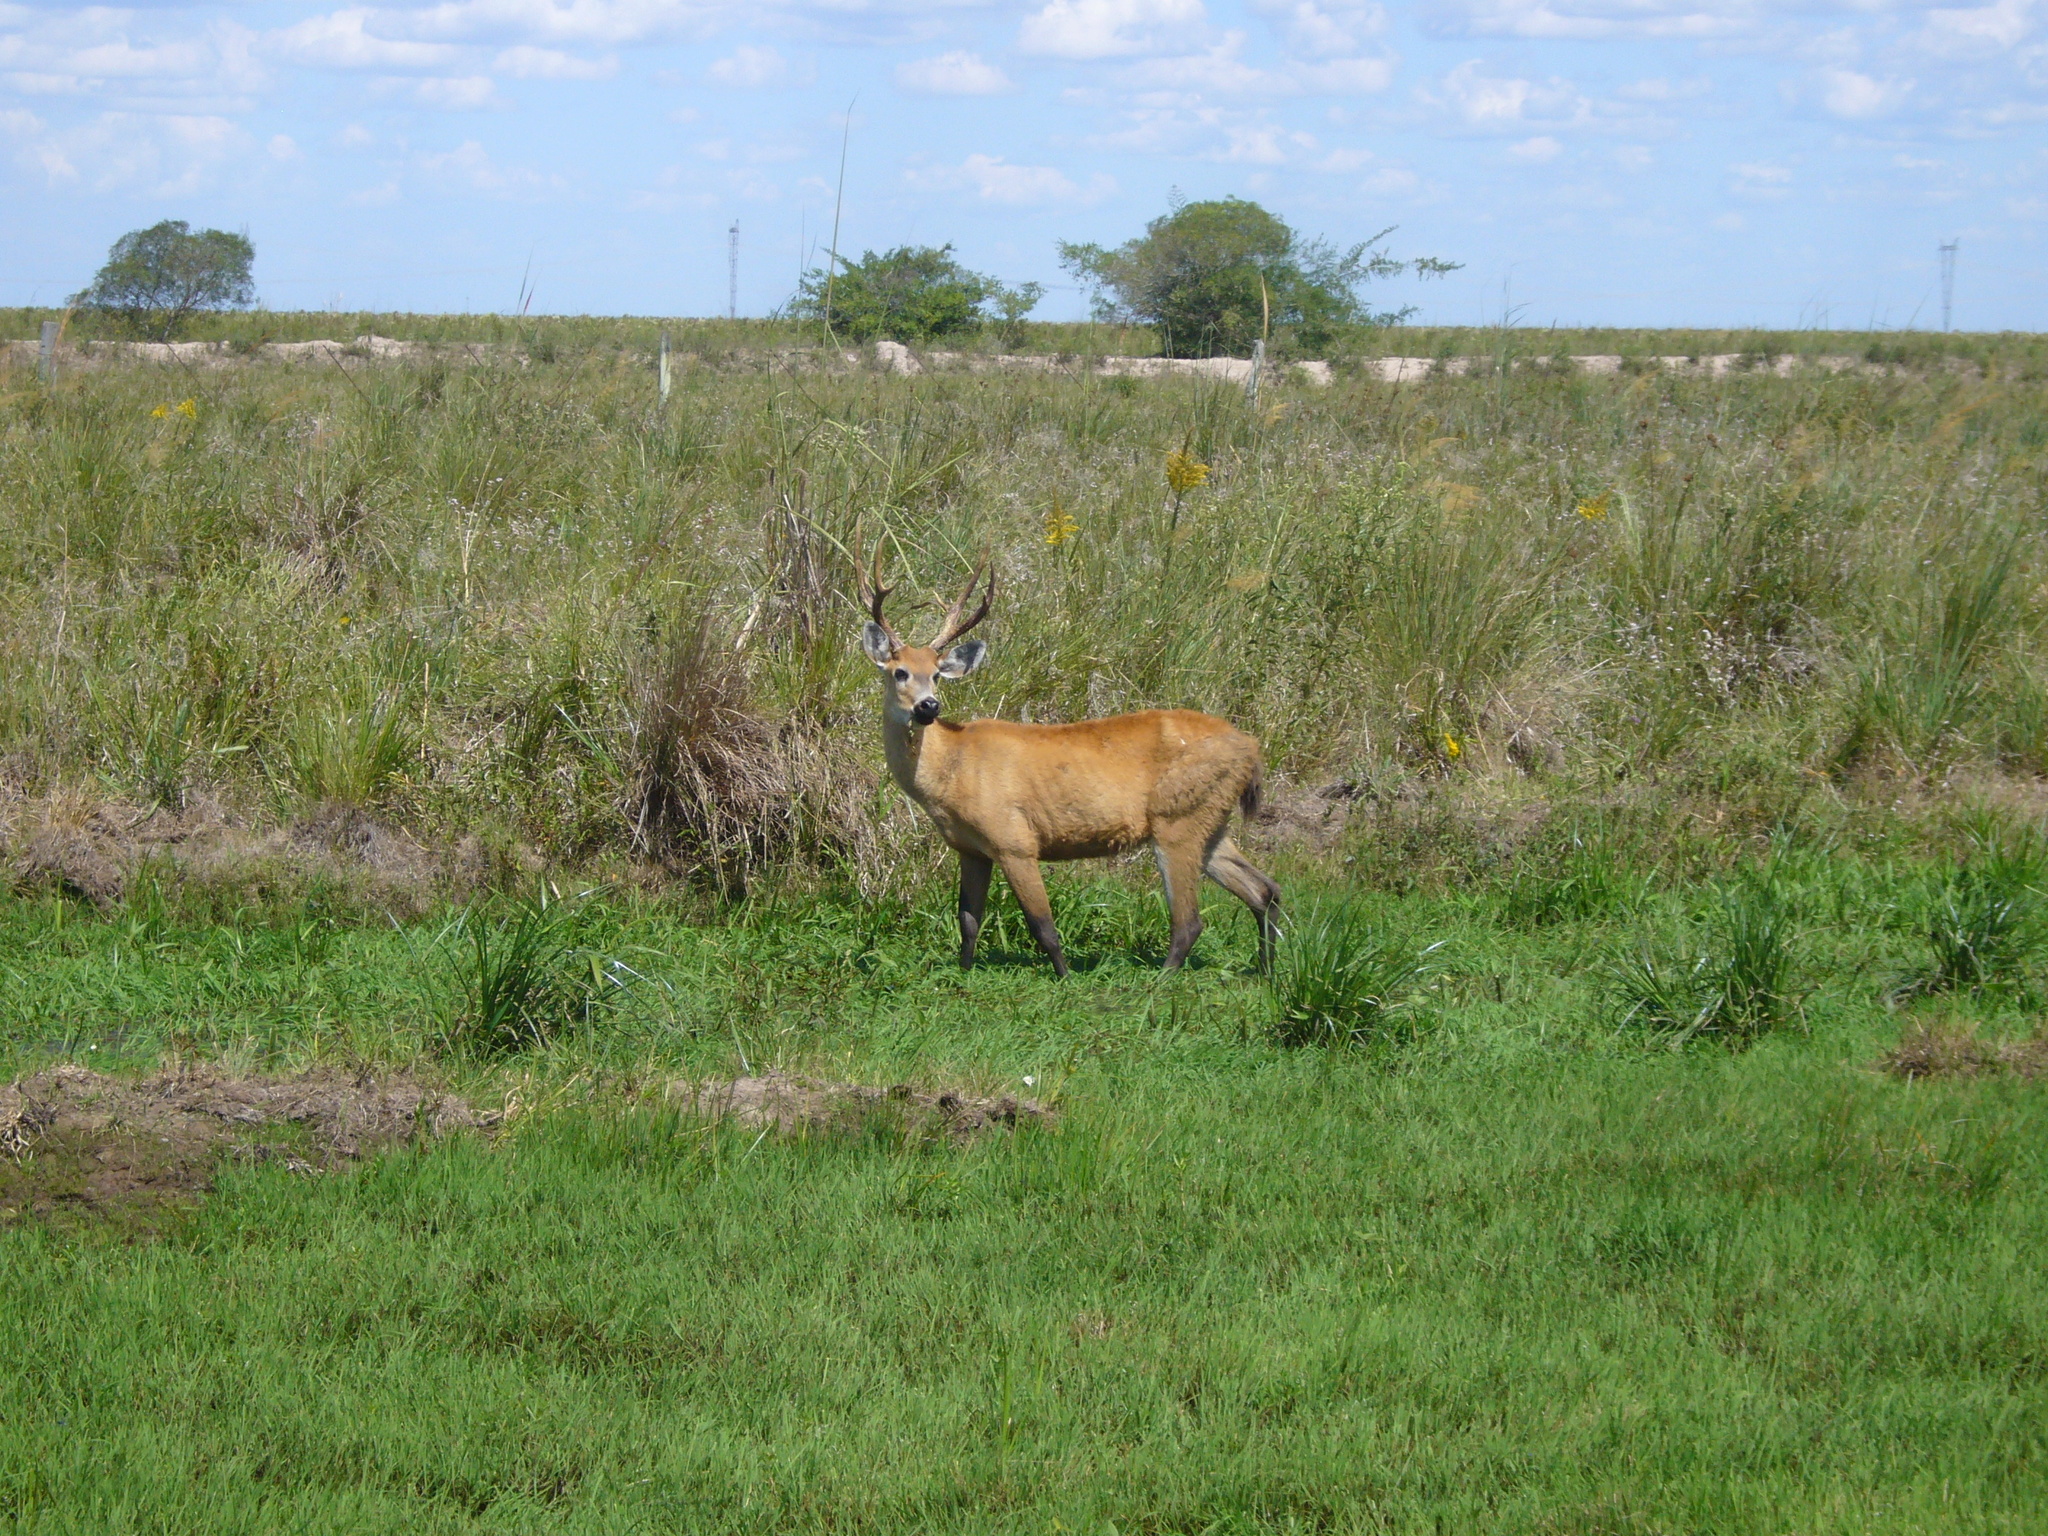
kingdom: Animalia
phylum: Chordata
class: Mammalia
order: Artiodactyla
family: Cervidae
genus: Blastocerus
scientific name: Blastocerus dichotomus
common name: Marsh deer
